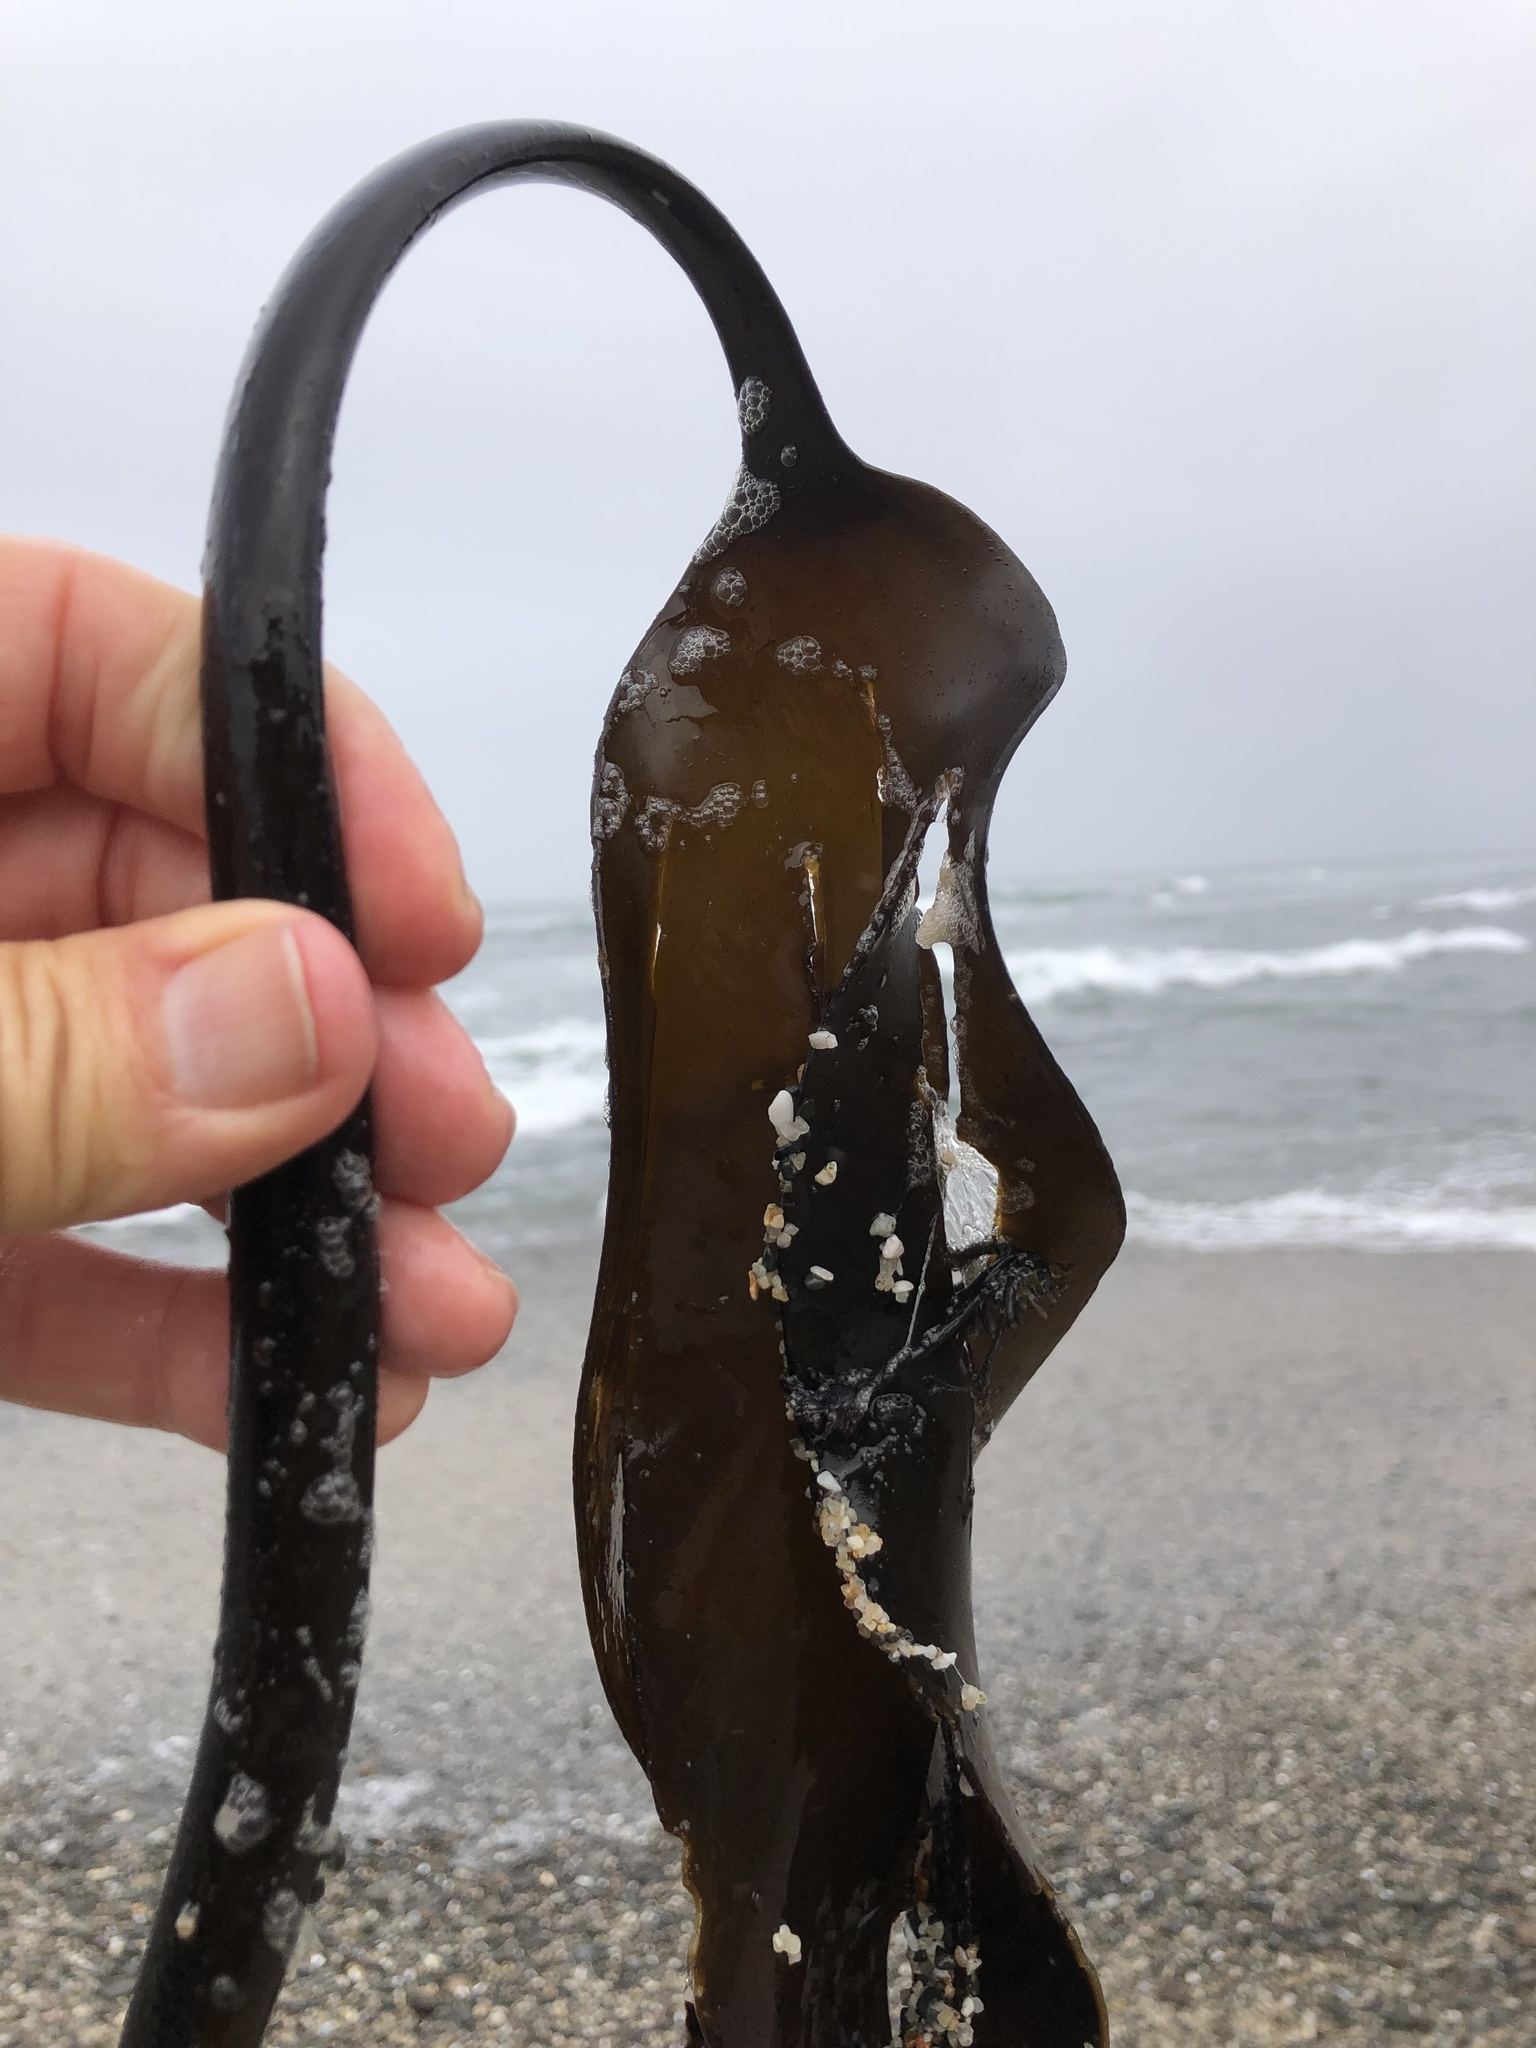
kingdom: Chromista
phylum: Ochrophyta
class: Phaeophyceae
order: Laminariales
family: Laminariaceae
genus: Laminaria
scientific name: Laminaria setchellii
